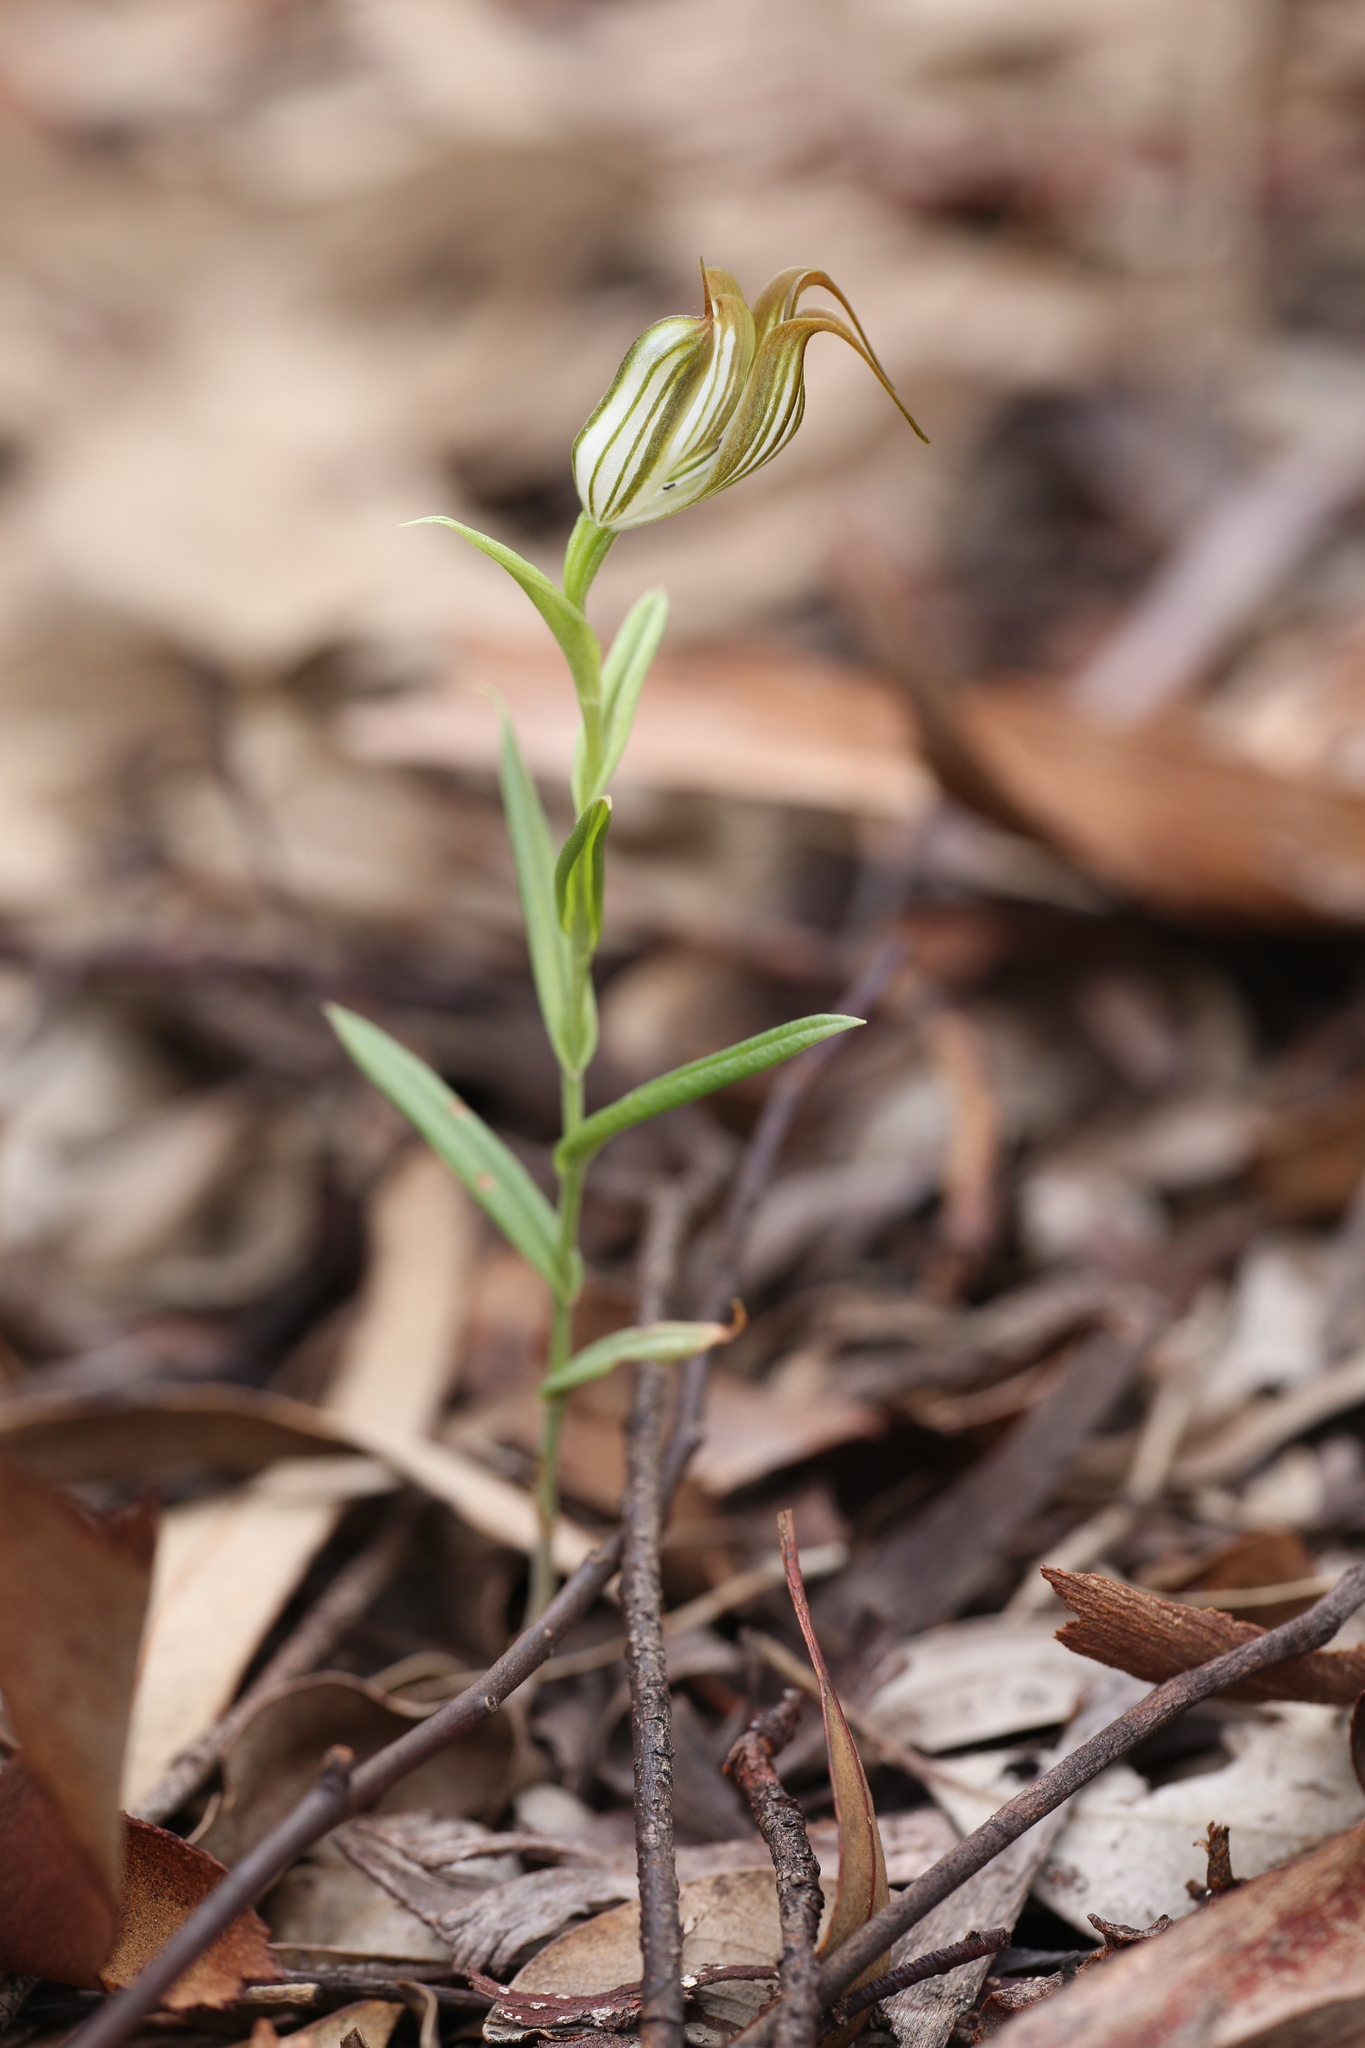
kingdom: Plantae
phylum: Tracheophyta
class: Liliopsida
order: Asparagales
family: Orchidaceae
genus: Pterostylis
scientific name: Pterostylis recurva
